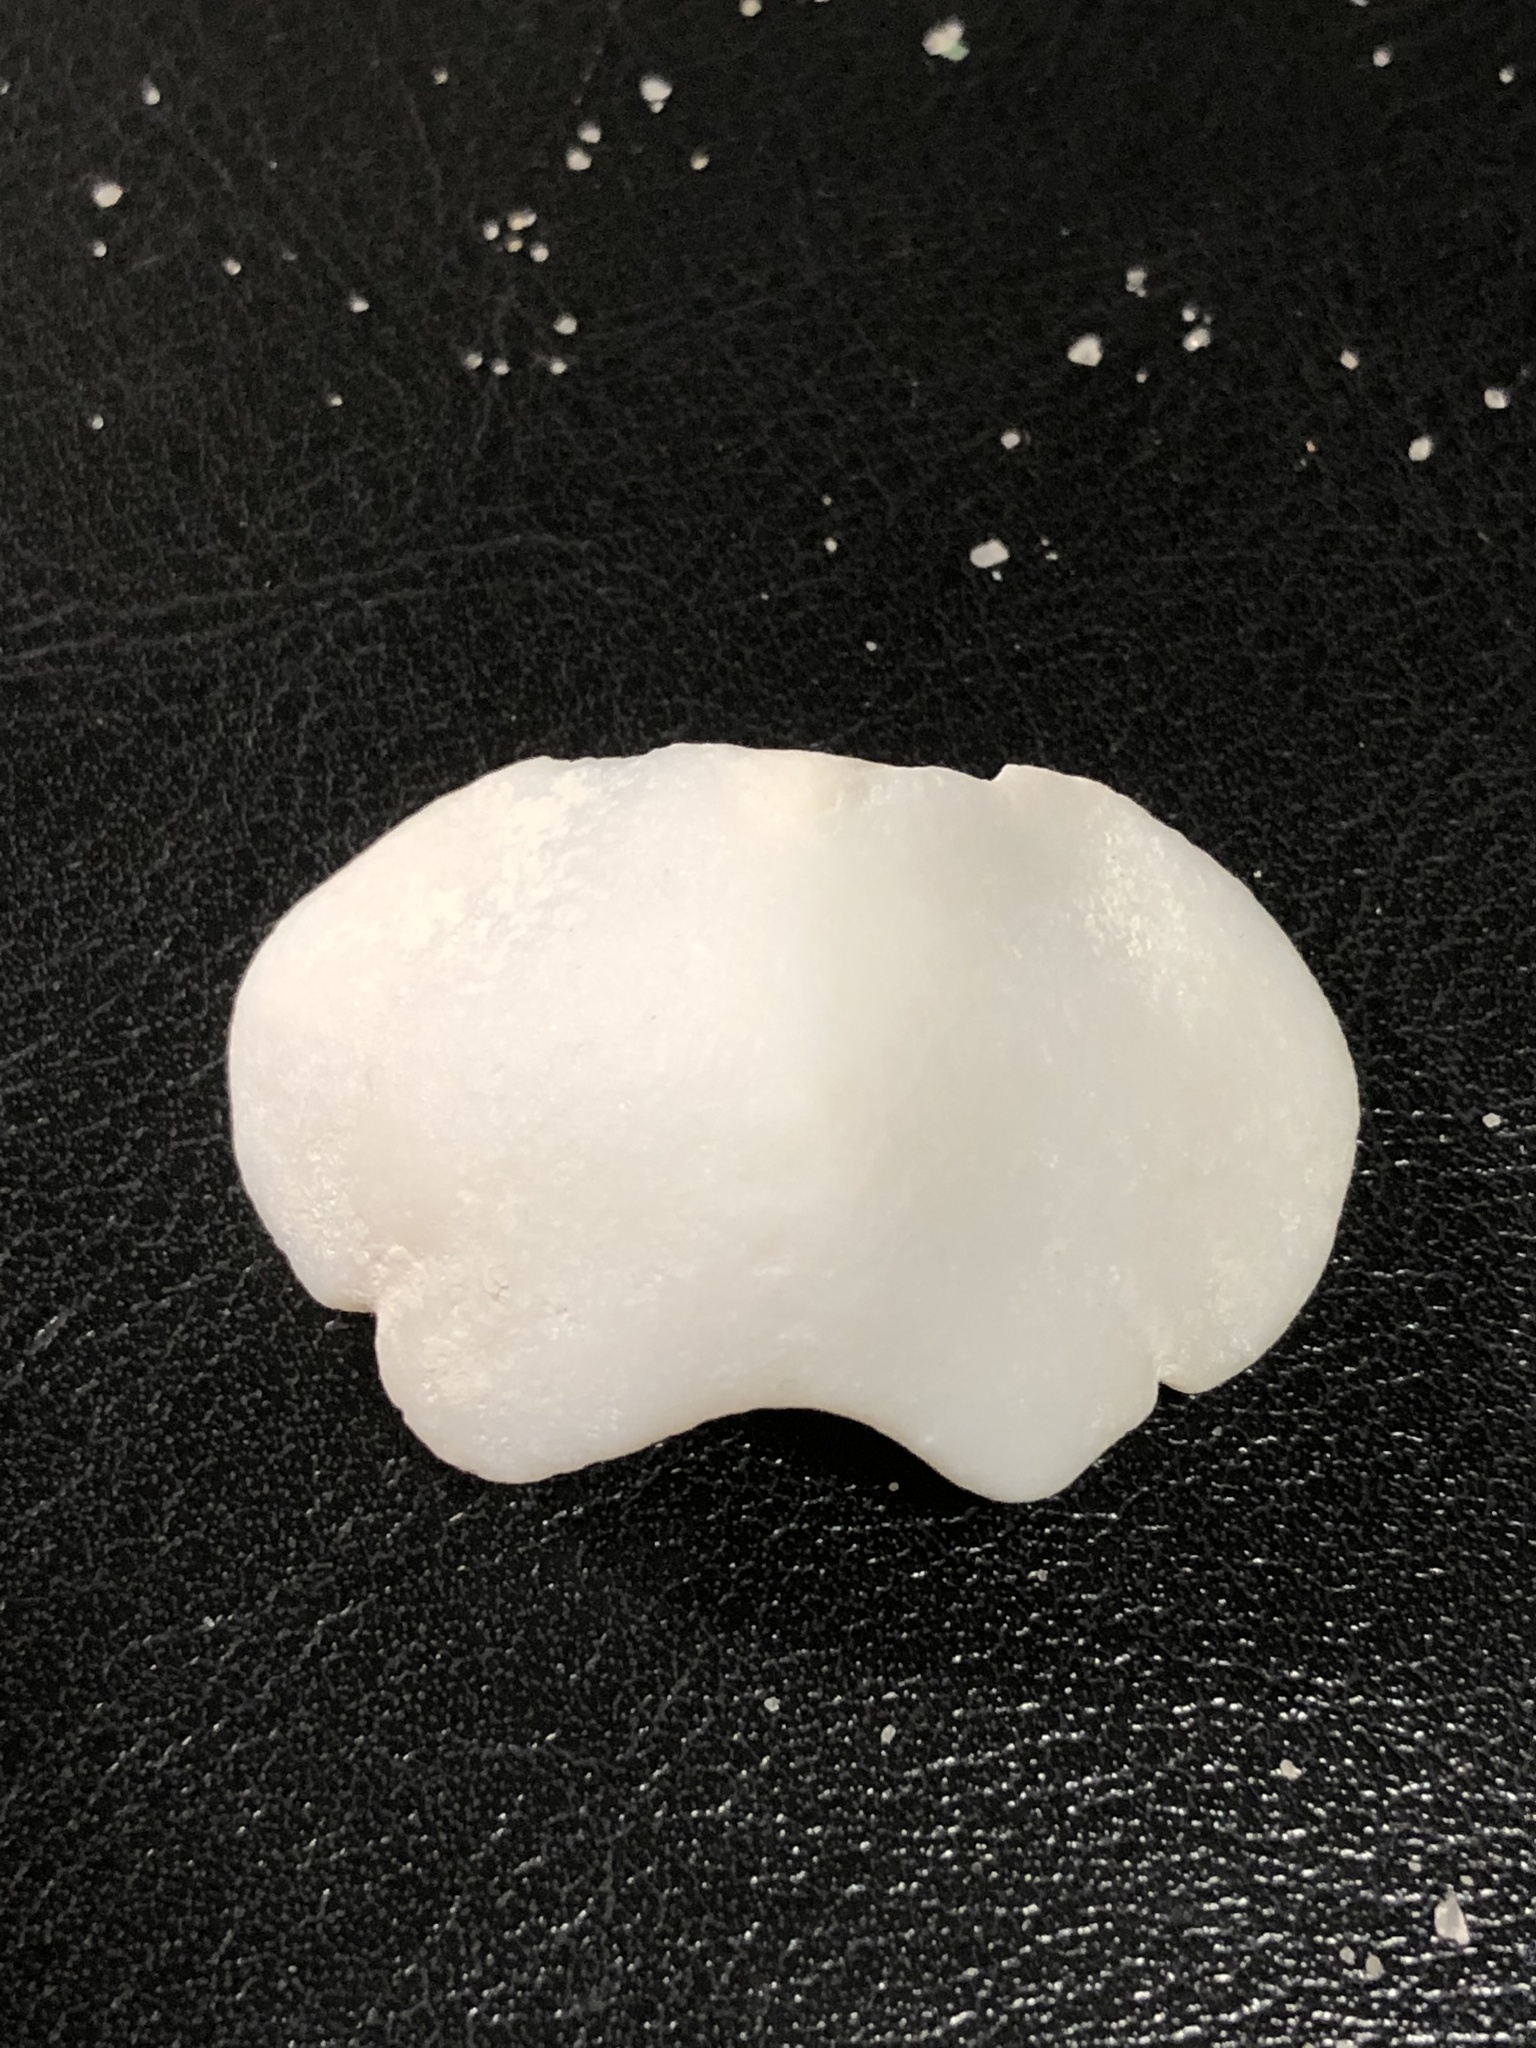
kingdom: Animalia
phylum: Mollusca
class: Polyplacophora
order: Chitonida
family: Acanthochitonidae
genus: Cryptochiton
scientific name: Cryptochiton stelleri
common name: Giant pacific chiton
